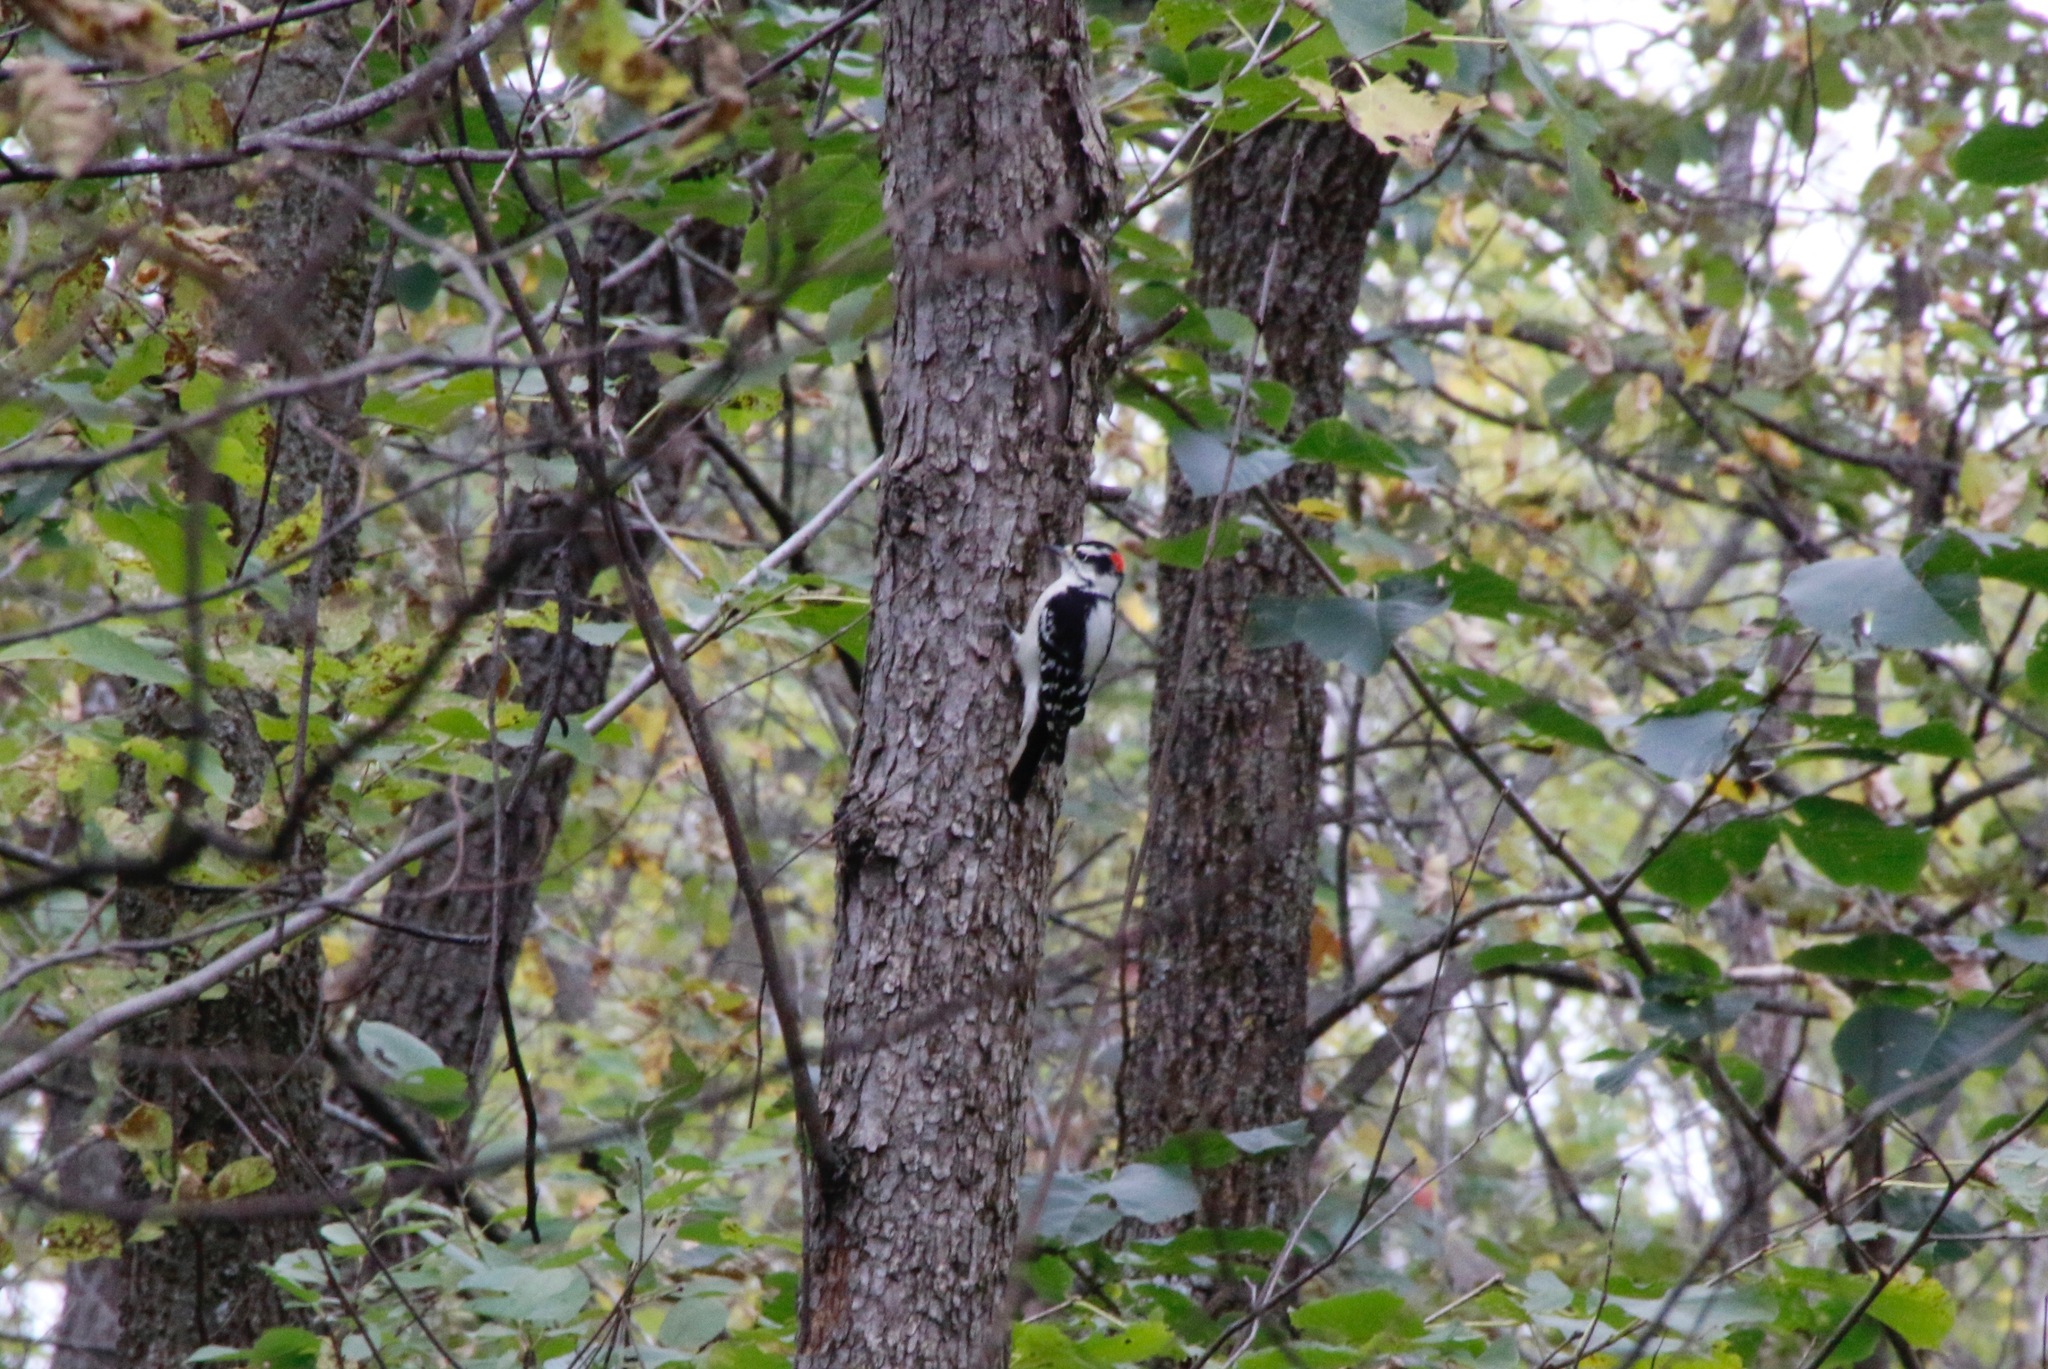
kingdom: Animalia
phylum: Chordata
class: Aves
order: Piciformes
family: Picidae
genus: Dryobates
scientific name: Dryobates pubescens
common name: Downy woodpecker
